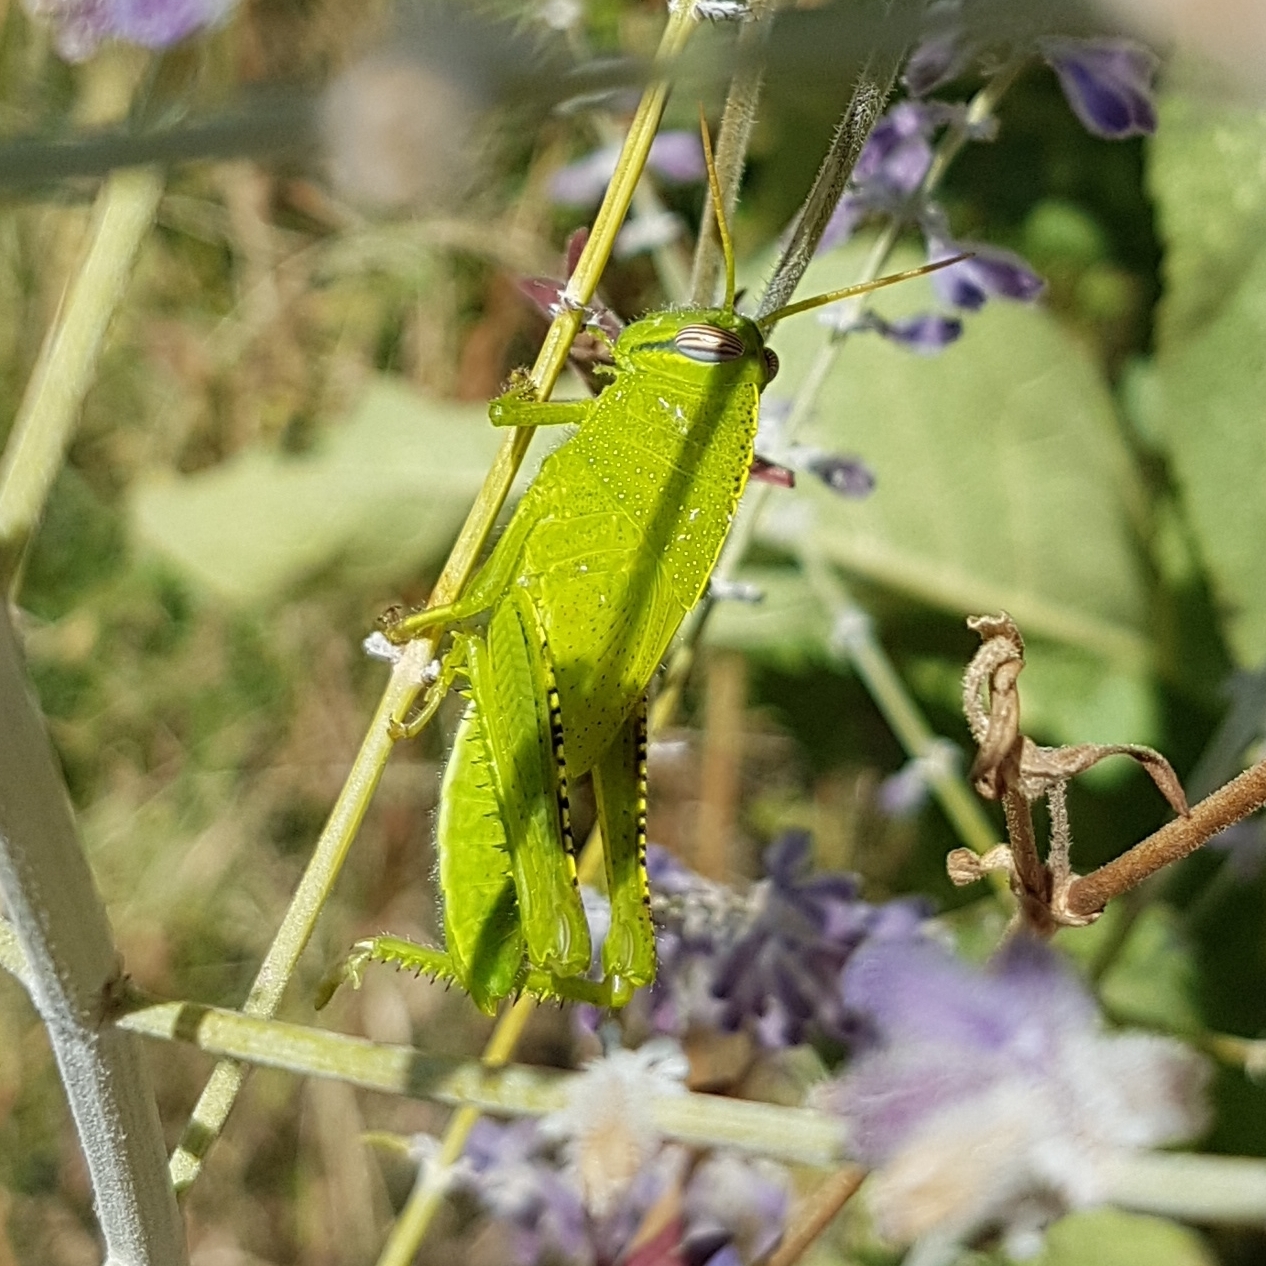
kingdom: Animalia
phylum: Arthropoda
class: Insecta
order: Orthoptera
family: Acrididae
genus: Anacridium
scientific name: Anacridium aegyptium
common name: Egyptian grasshopper
